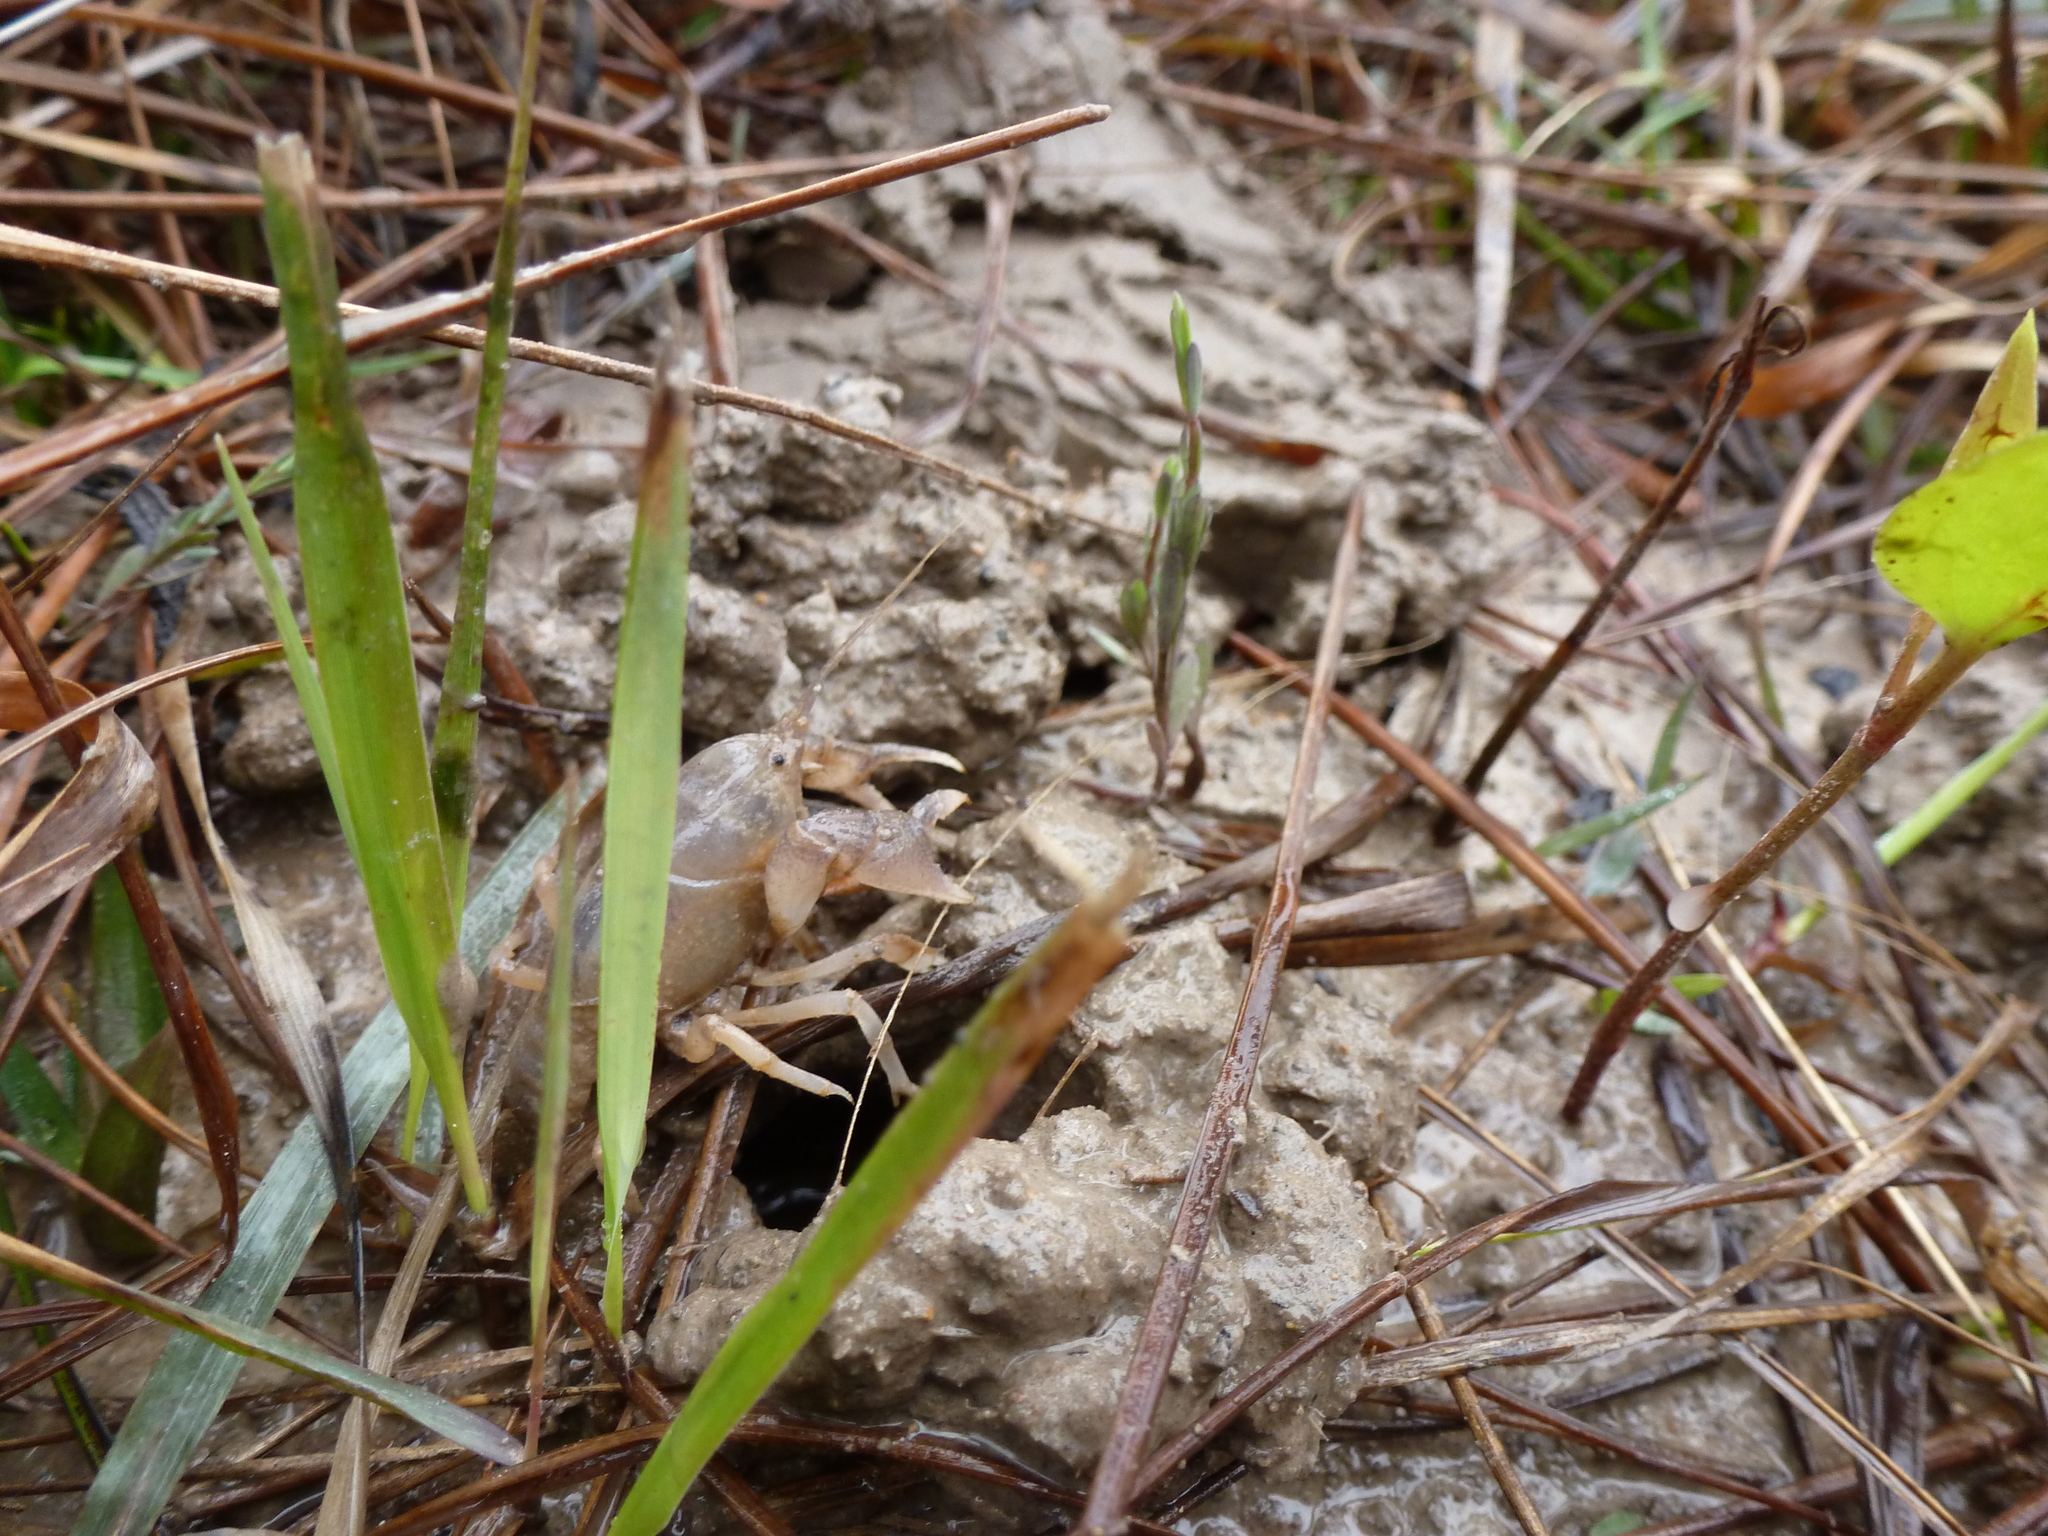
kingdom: Animalia
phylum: Arthropoda
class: Malacostraca
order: Decapoda
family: Cambaridae
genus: Creaserinus
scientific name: Creaserinus fodiens
